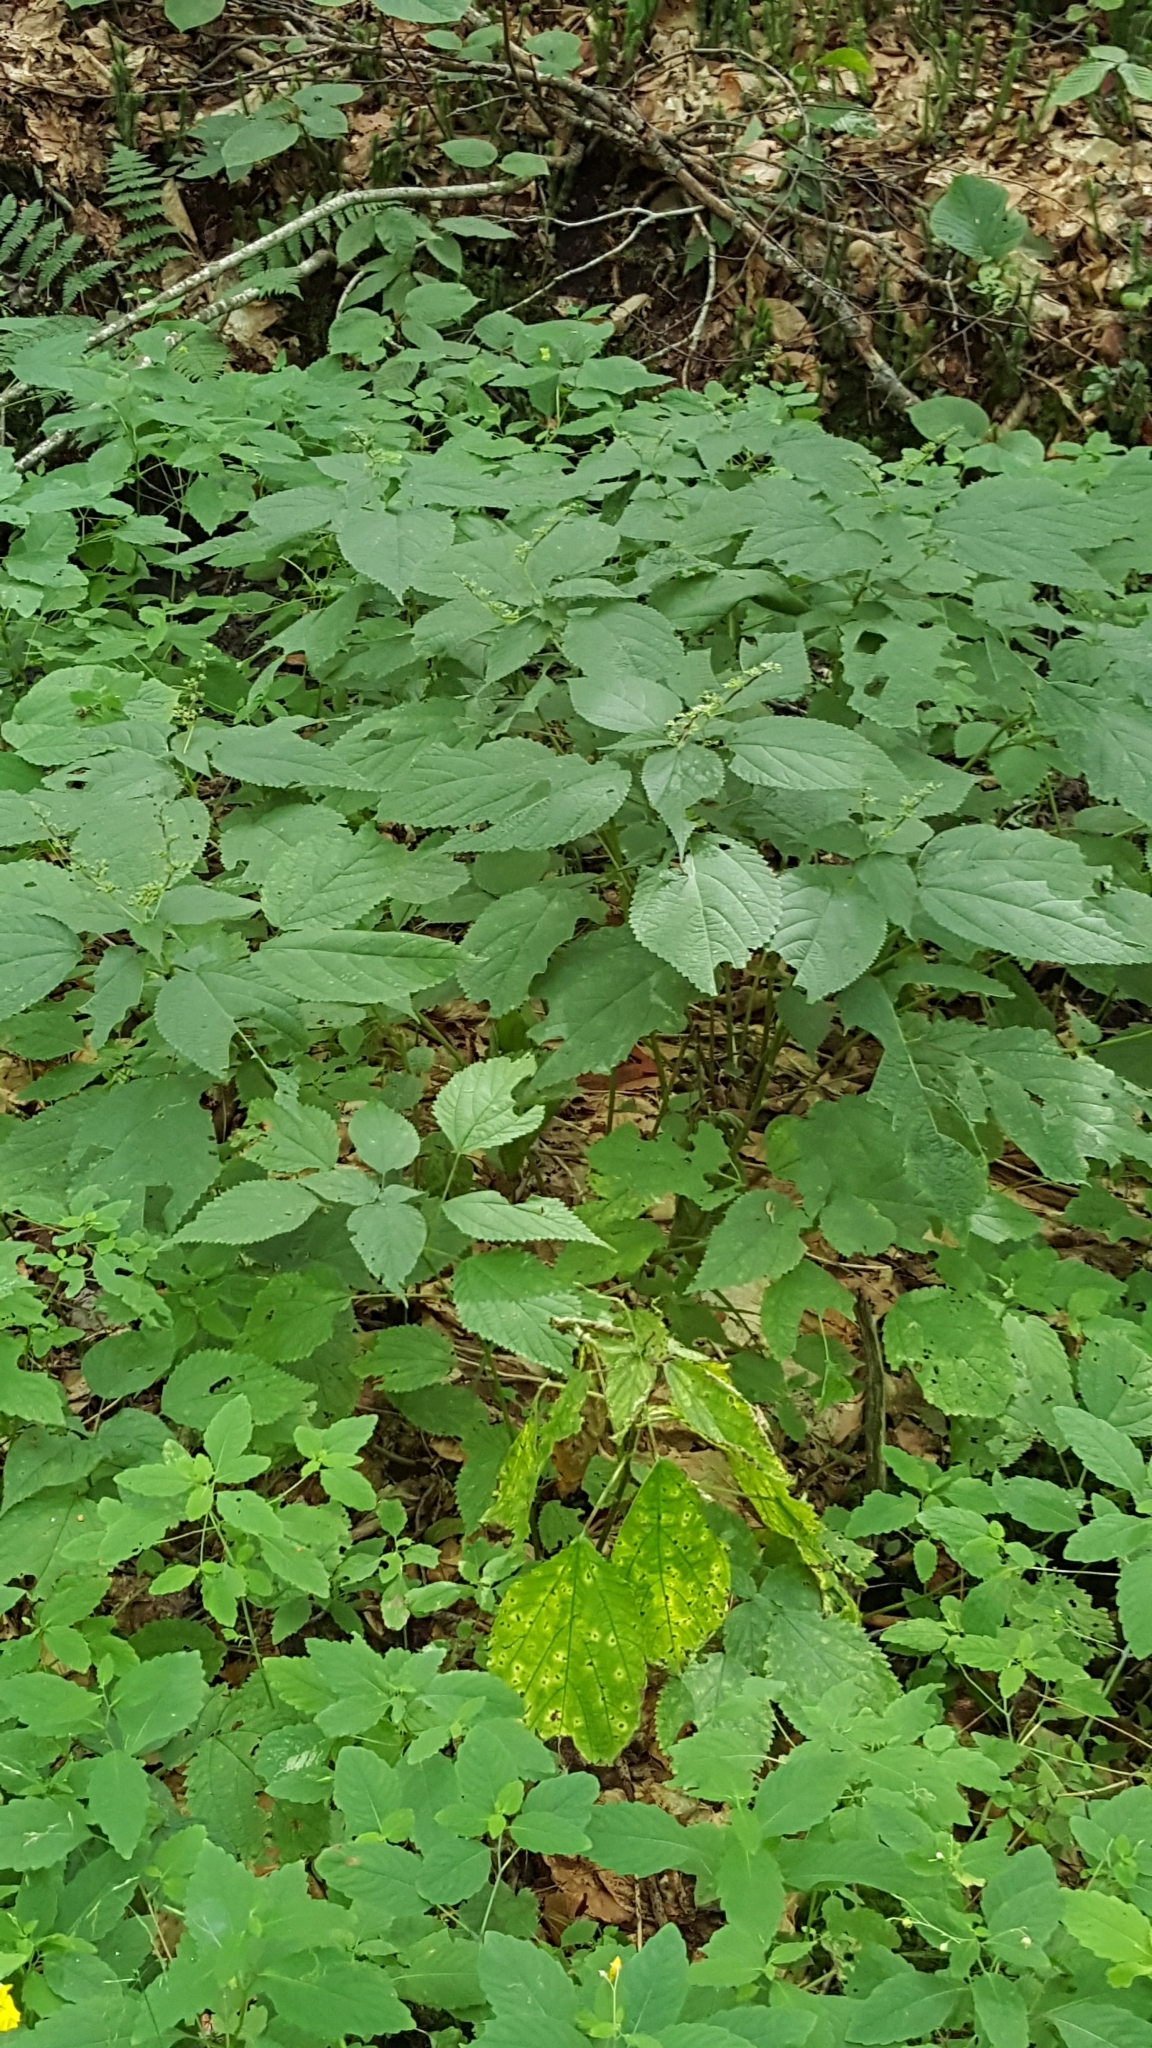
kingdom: Plantae
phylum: Tracheophyta
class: Magnoliopsida
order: Rosales
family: Urticaceae
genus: Laportea
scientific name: Laportea canadensis
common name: Canada nettle
